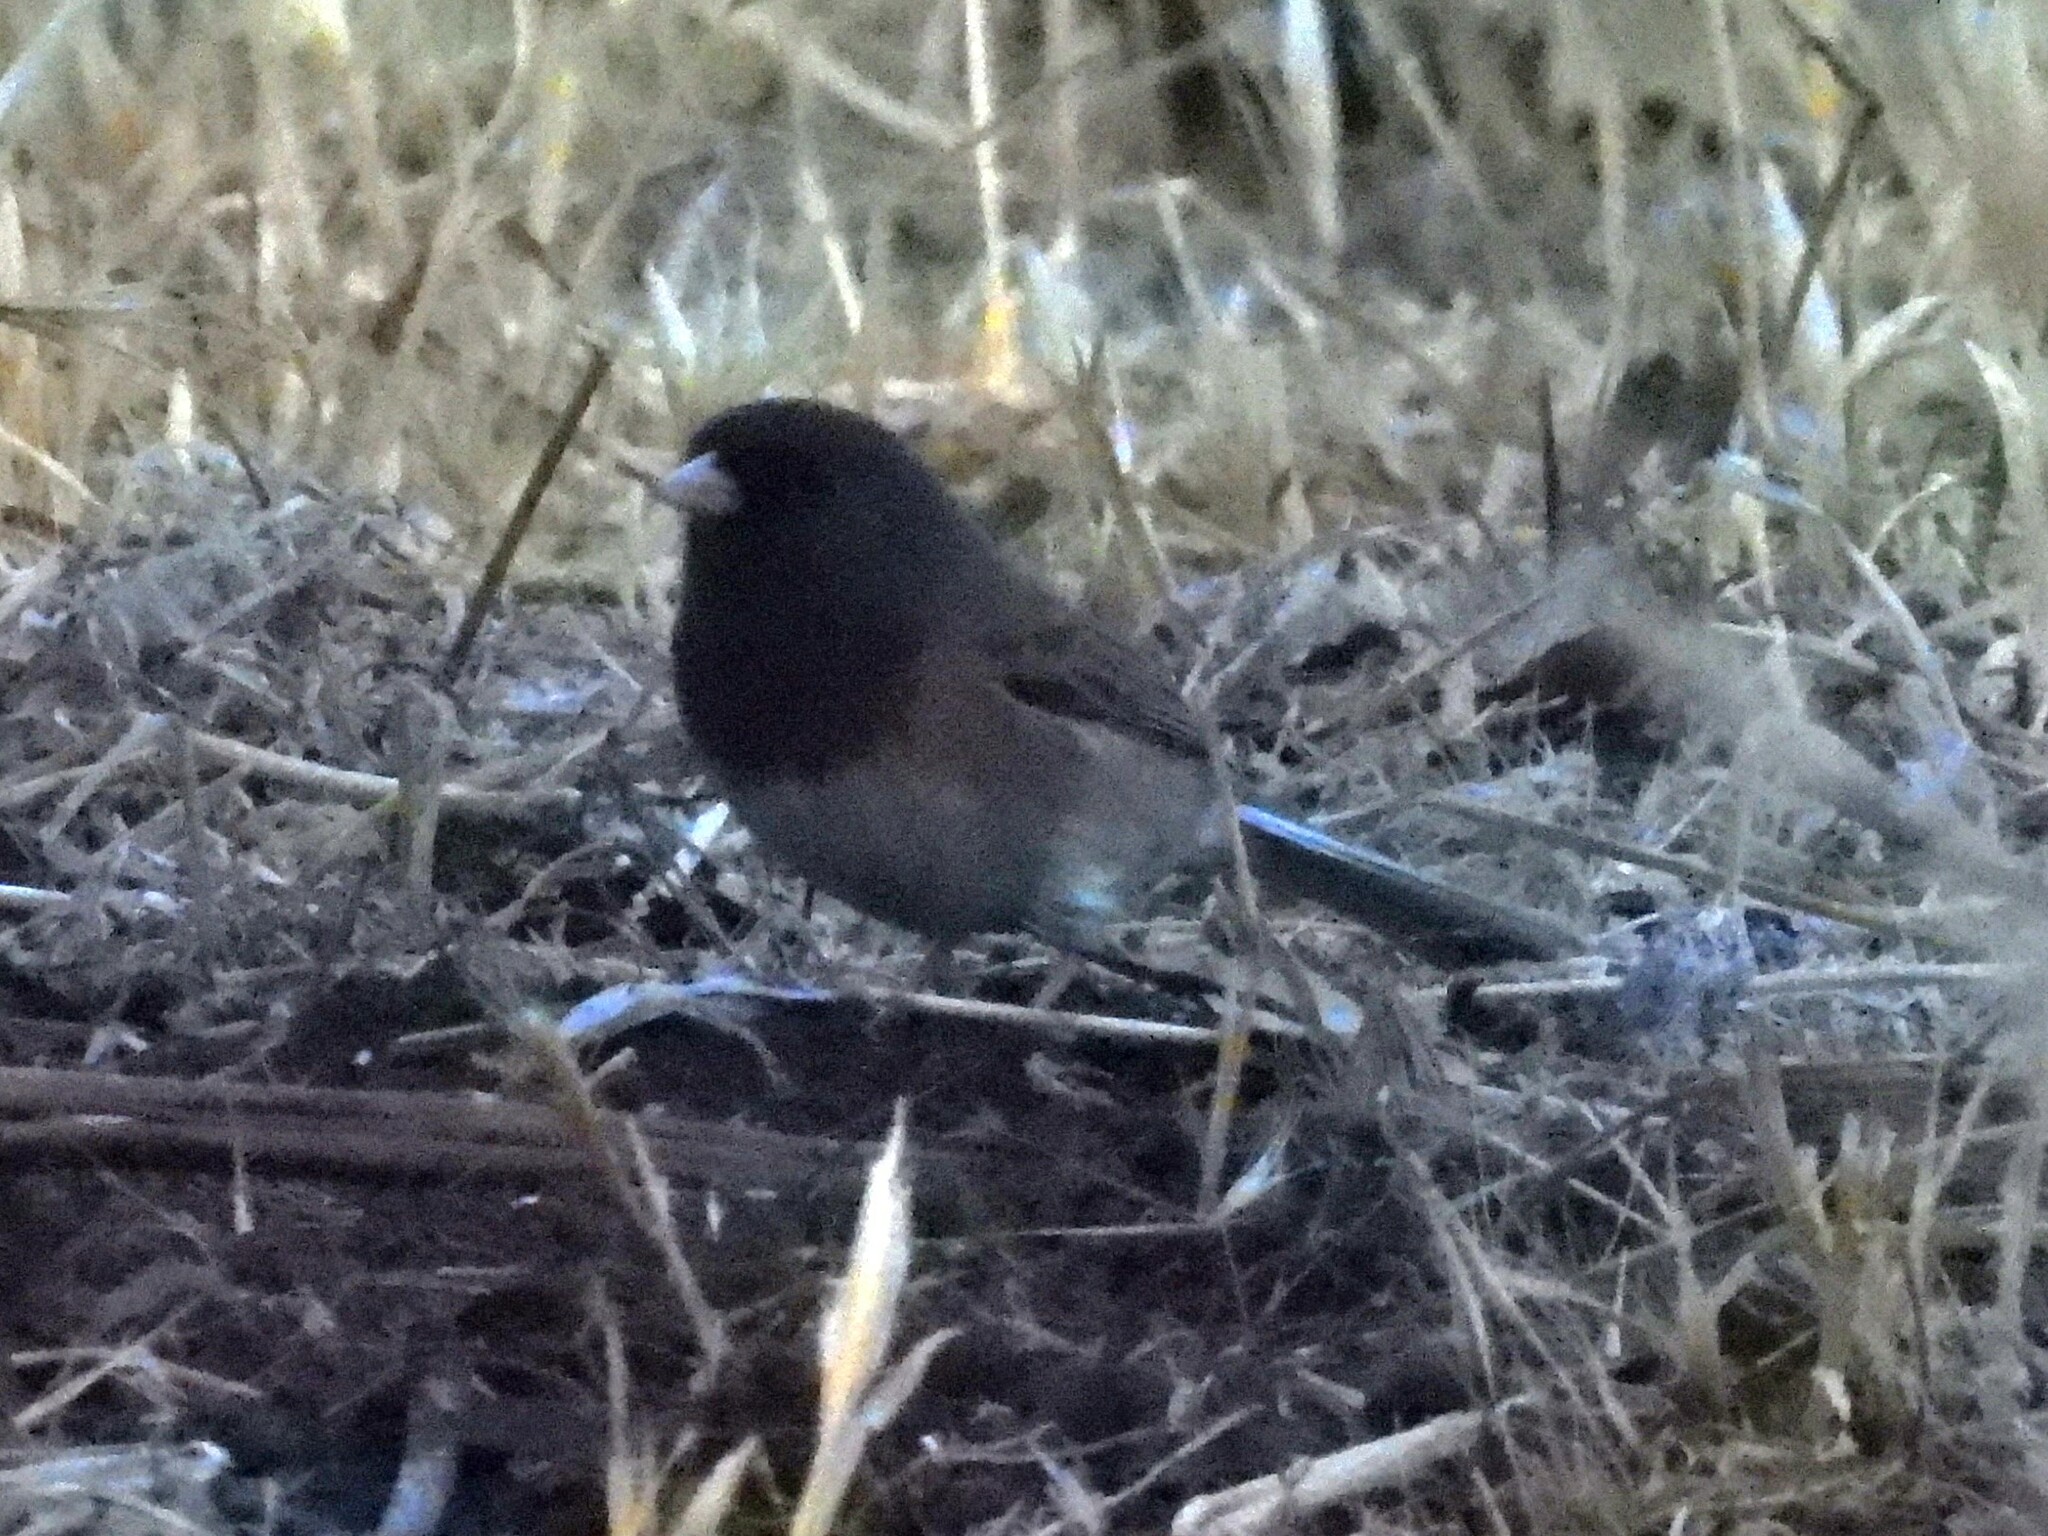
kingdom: Animalia
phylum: Chordata
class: Aves
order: Passeriformes
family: Passerellidae
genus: Junco
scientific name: Junco hyemalis
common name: Dark-eyed junco
